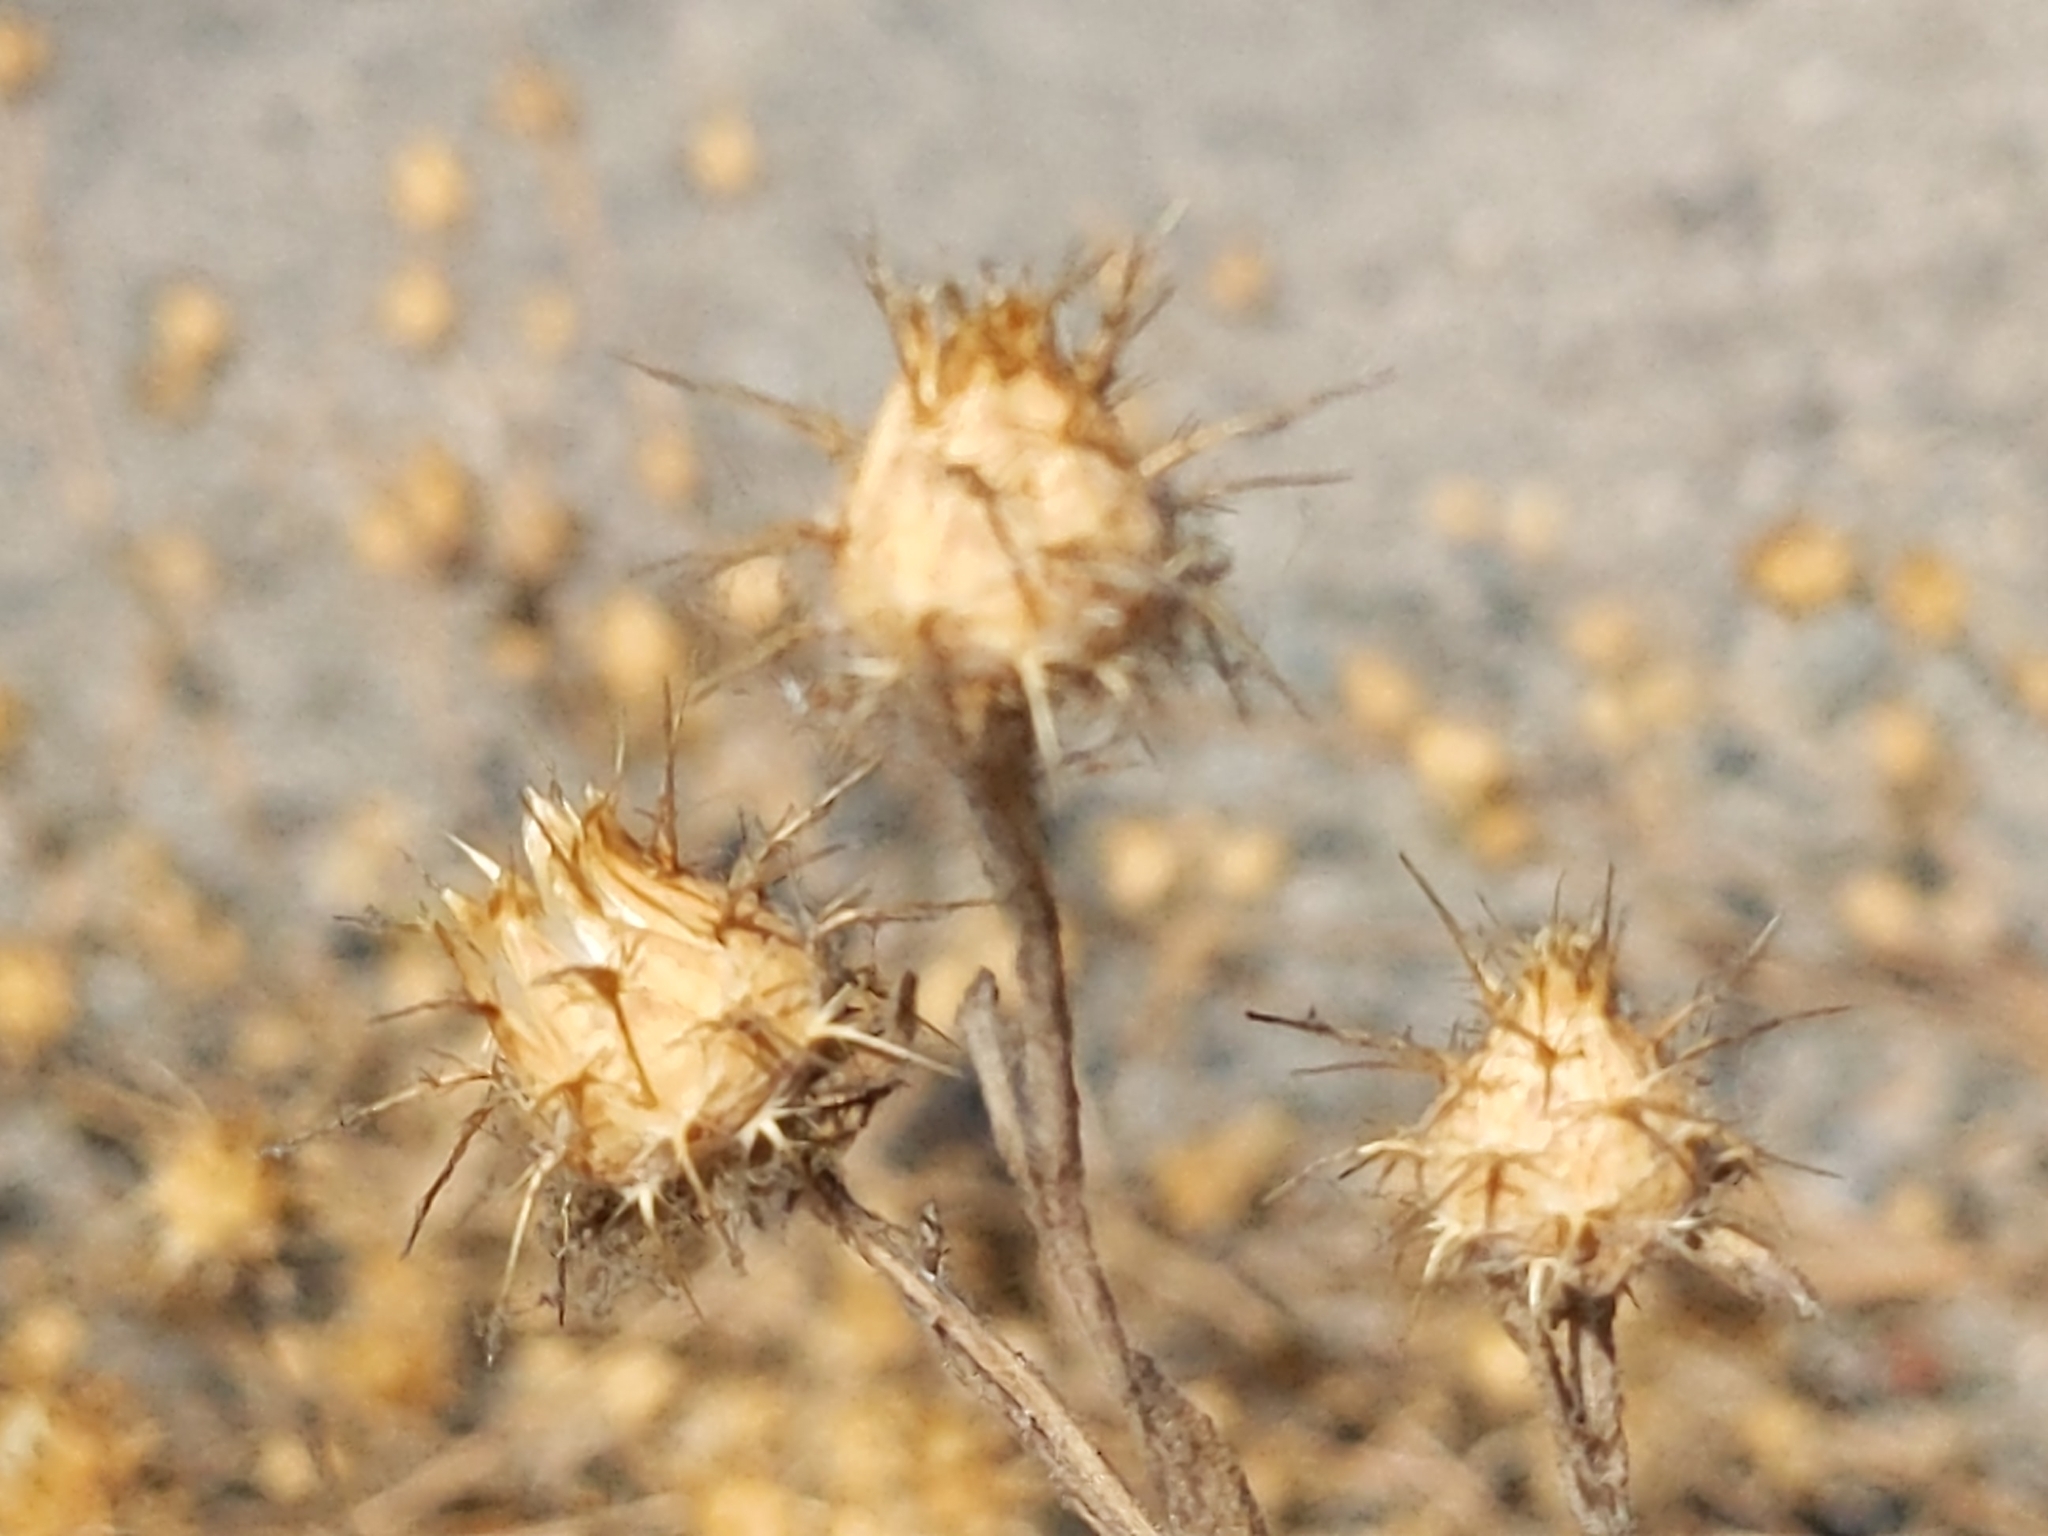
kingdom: Plantae
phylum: Tracheophyta
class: Magnoliopsida
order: Asterales
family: Asteraceae
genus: Centaurea
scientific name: Centaurea melitensis
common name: Maltese star-thistle
